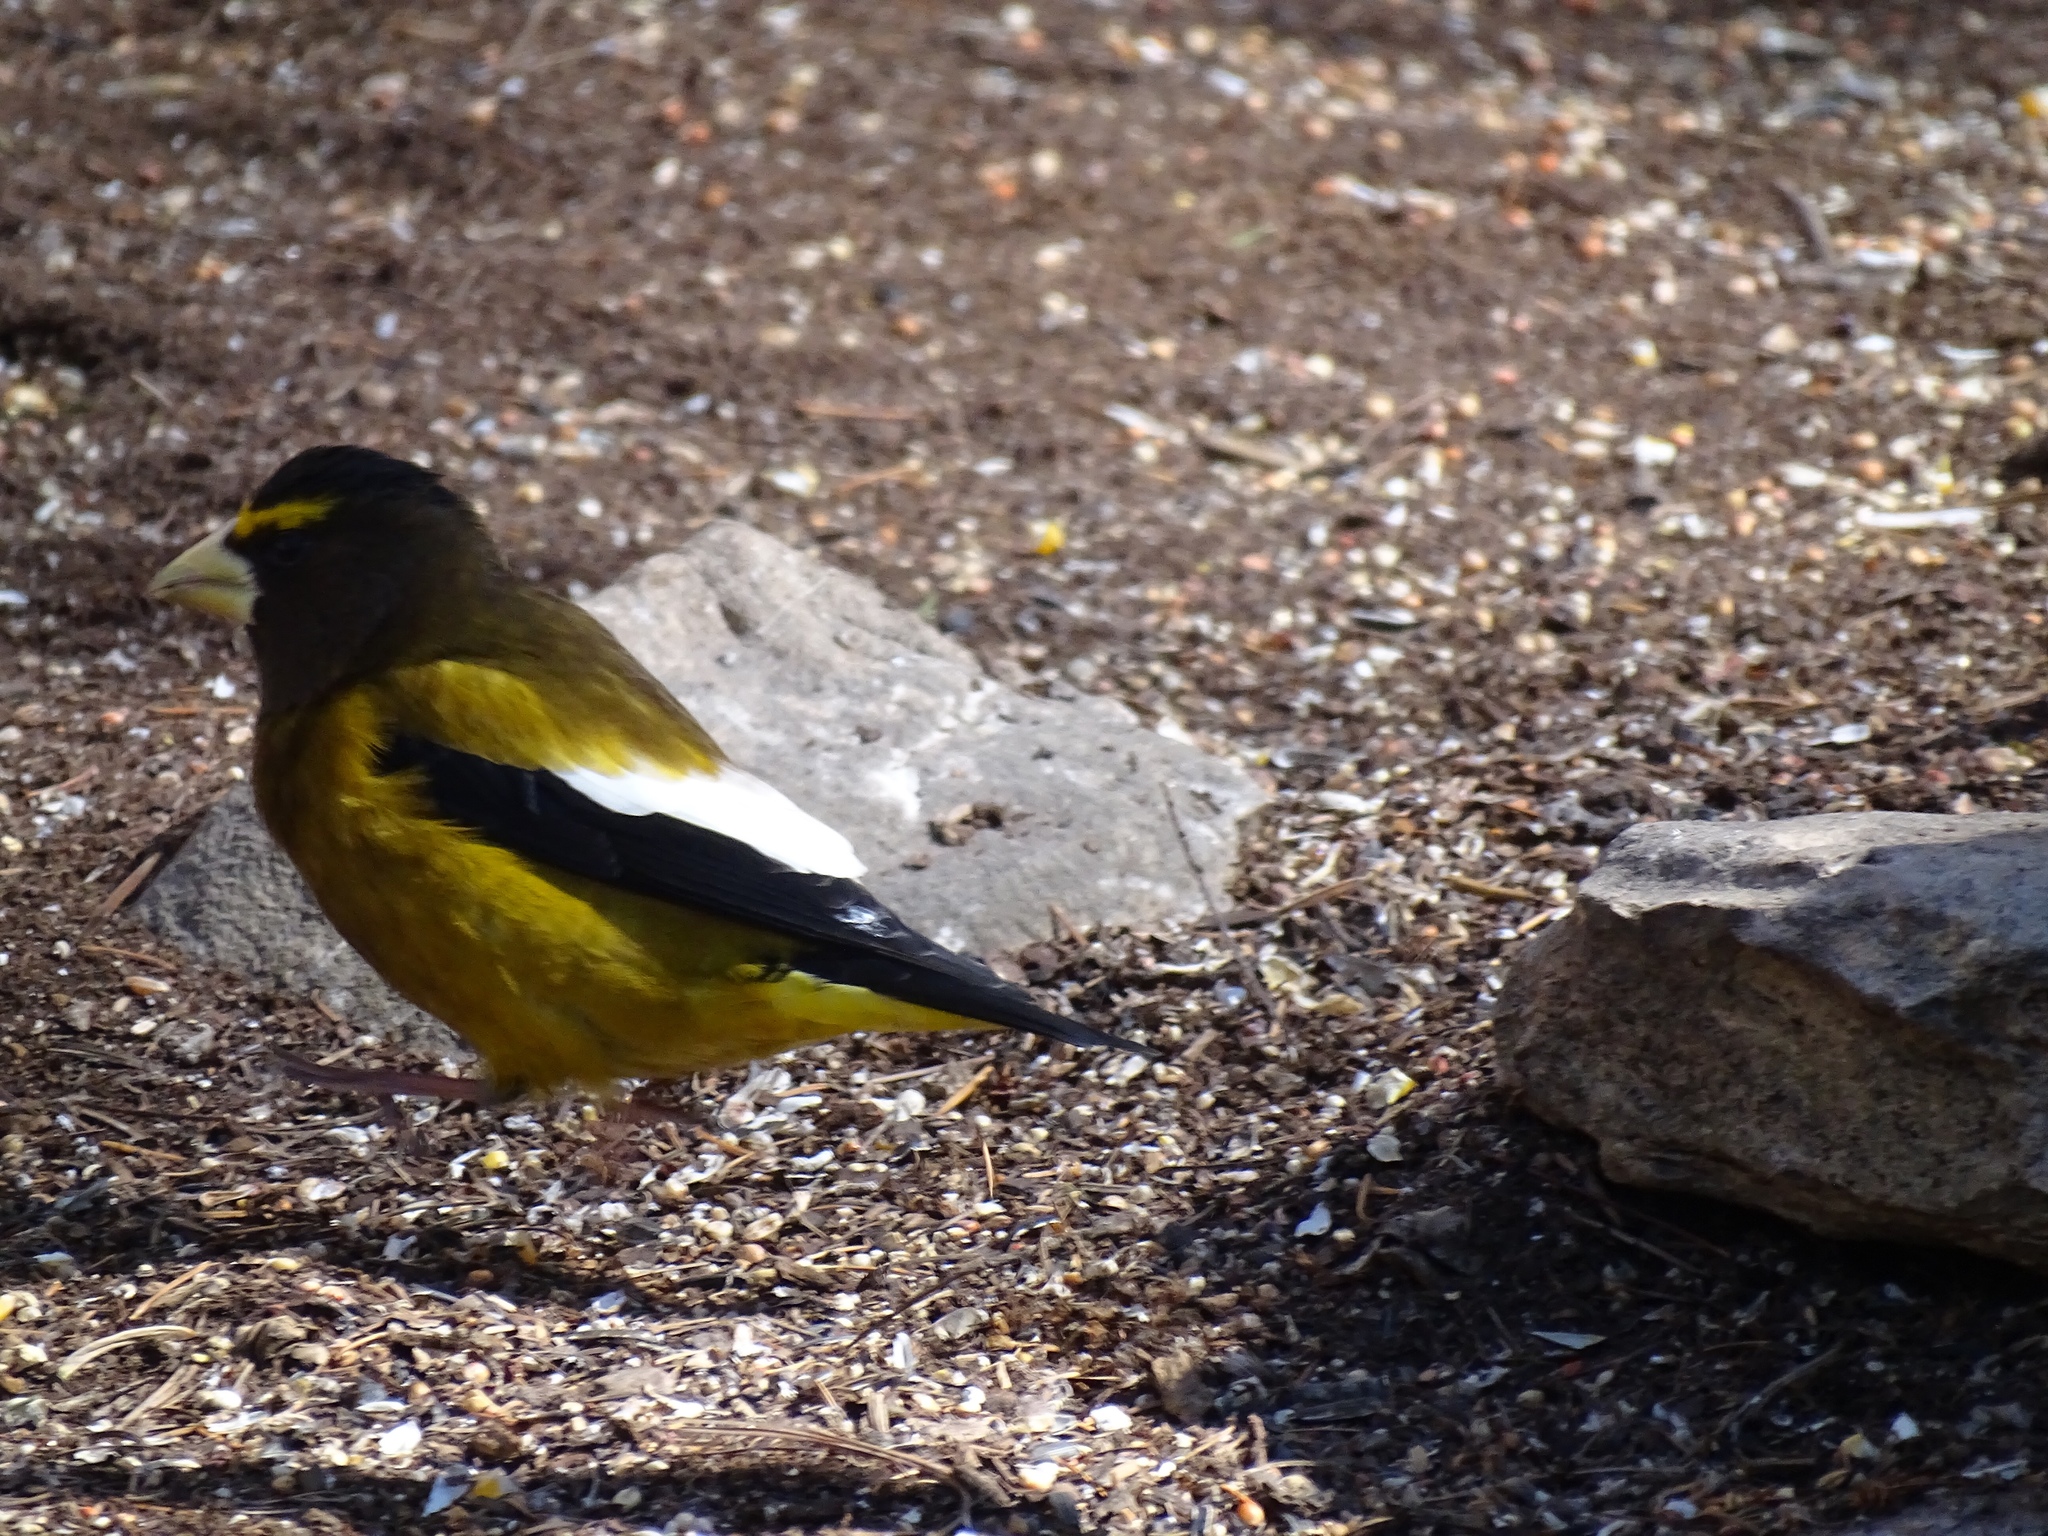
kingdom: Animalia
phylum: Chordata
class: Aves
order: Passeriformes
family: Fringillidae
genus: Hesperiphona
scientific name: Hesperiphona vespertina
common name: Evening grosbeak
